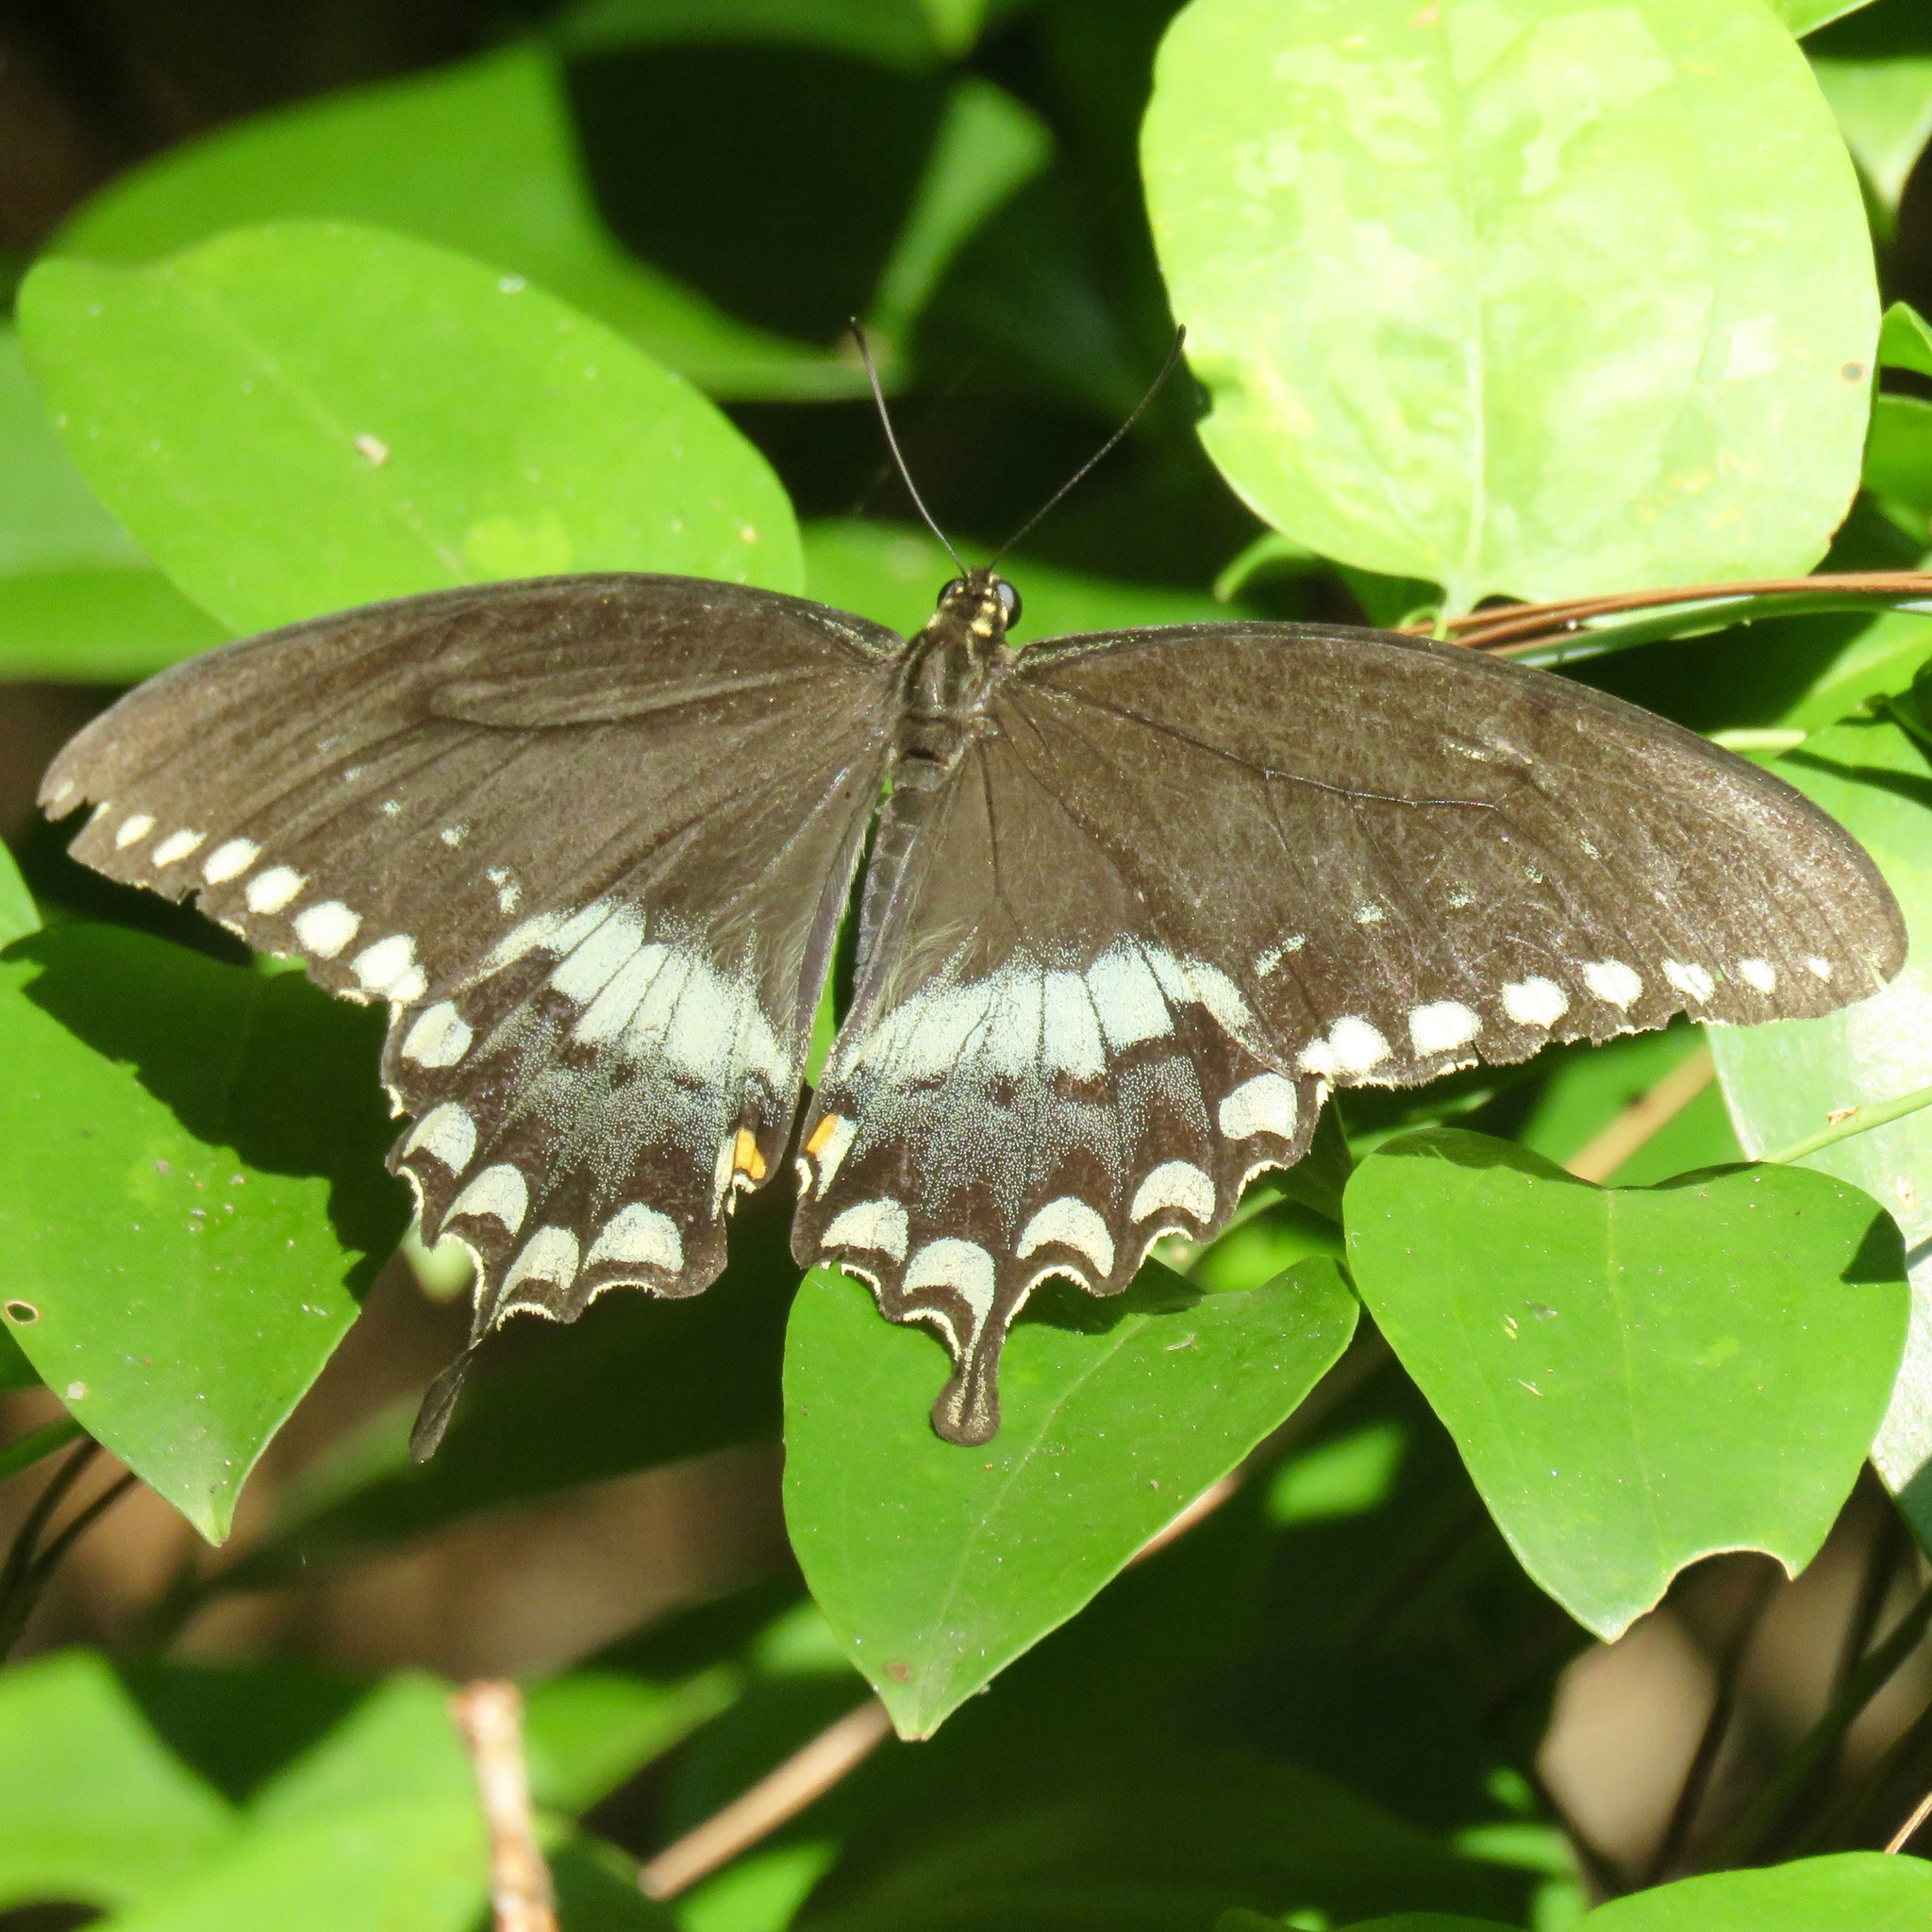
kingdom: Animalia
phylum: Arthropoda
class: Insecta
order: Lepidoptera
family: Papilionidae
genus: Papilio
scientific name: Papilio troilus
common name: Spicebush swallowtail
